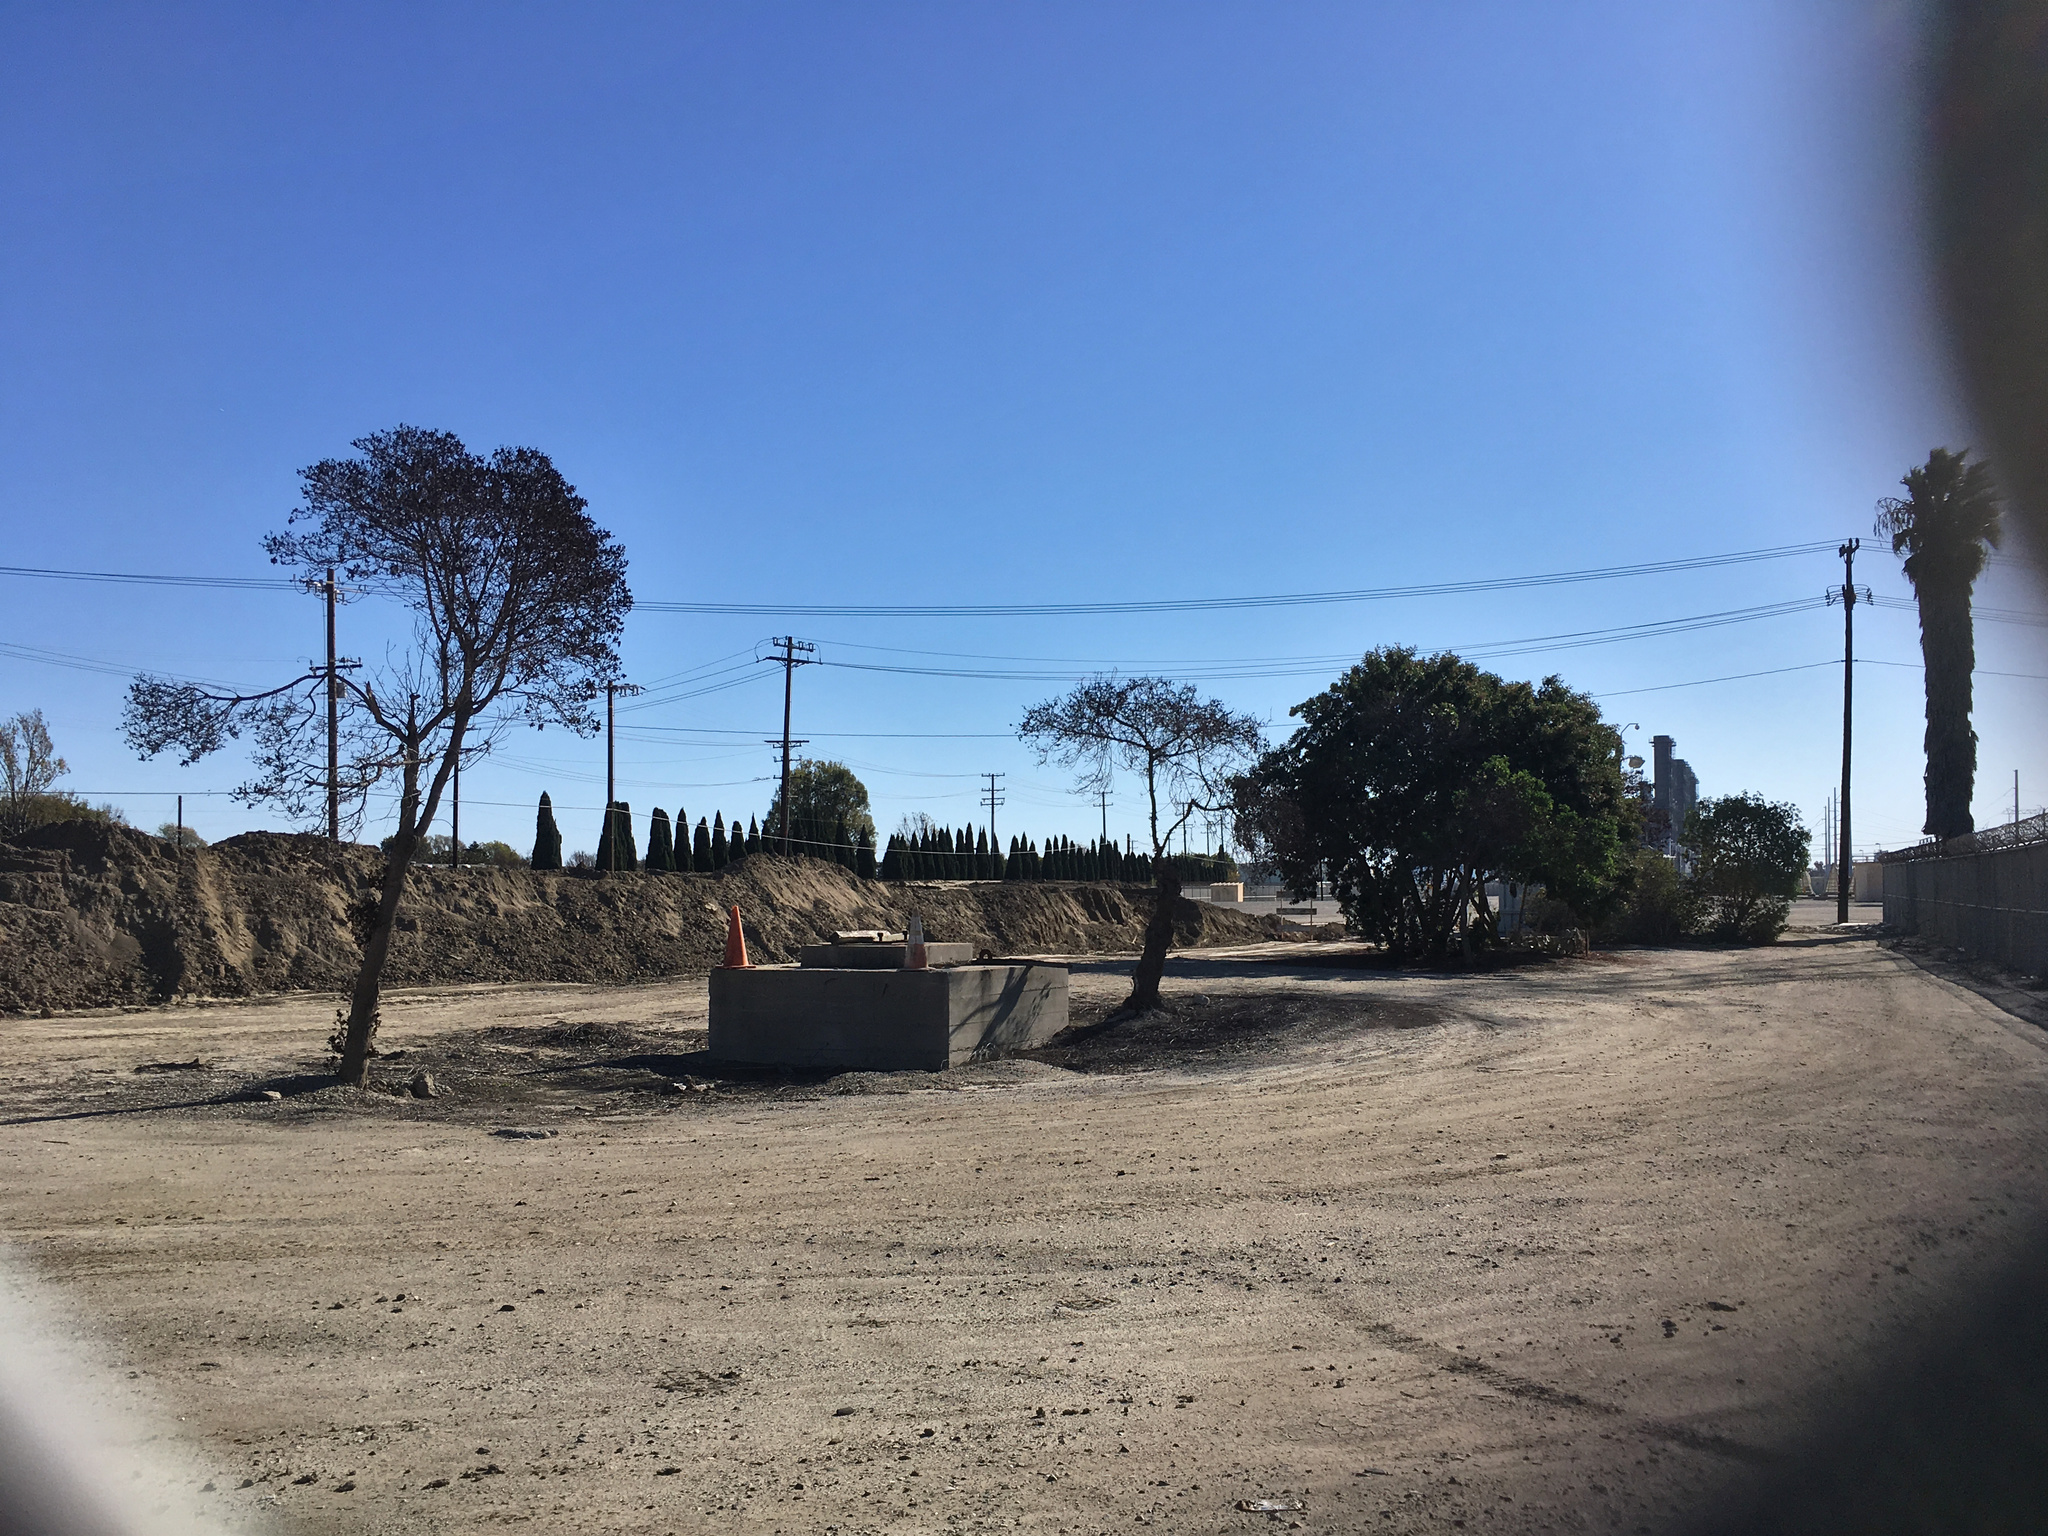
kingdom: Plantae
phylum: Tracheophyta
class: Magnoliopsida
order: Lamiales
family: Scrophulariaceae
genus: Myoporum
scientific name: Myoporum laetum
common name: Ngaio tree
